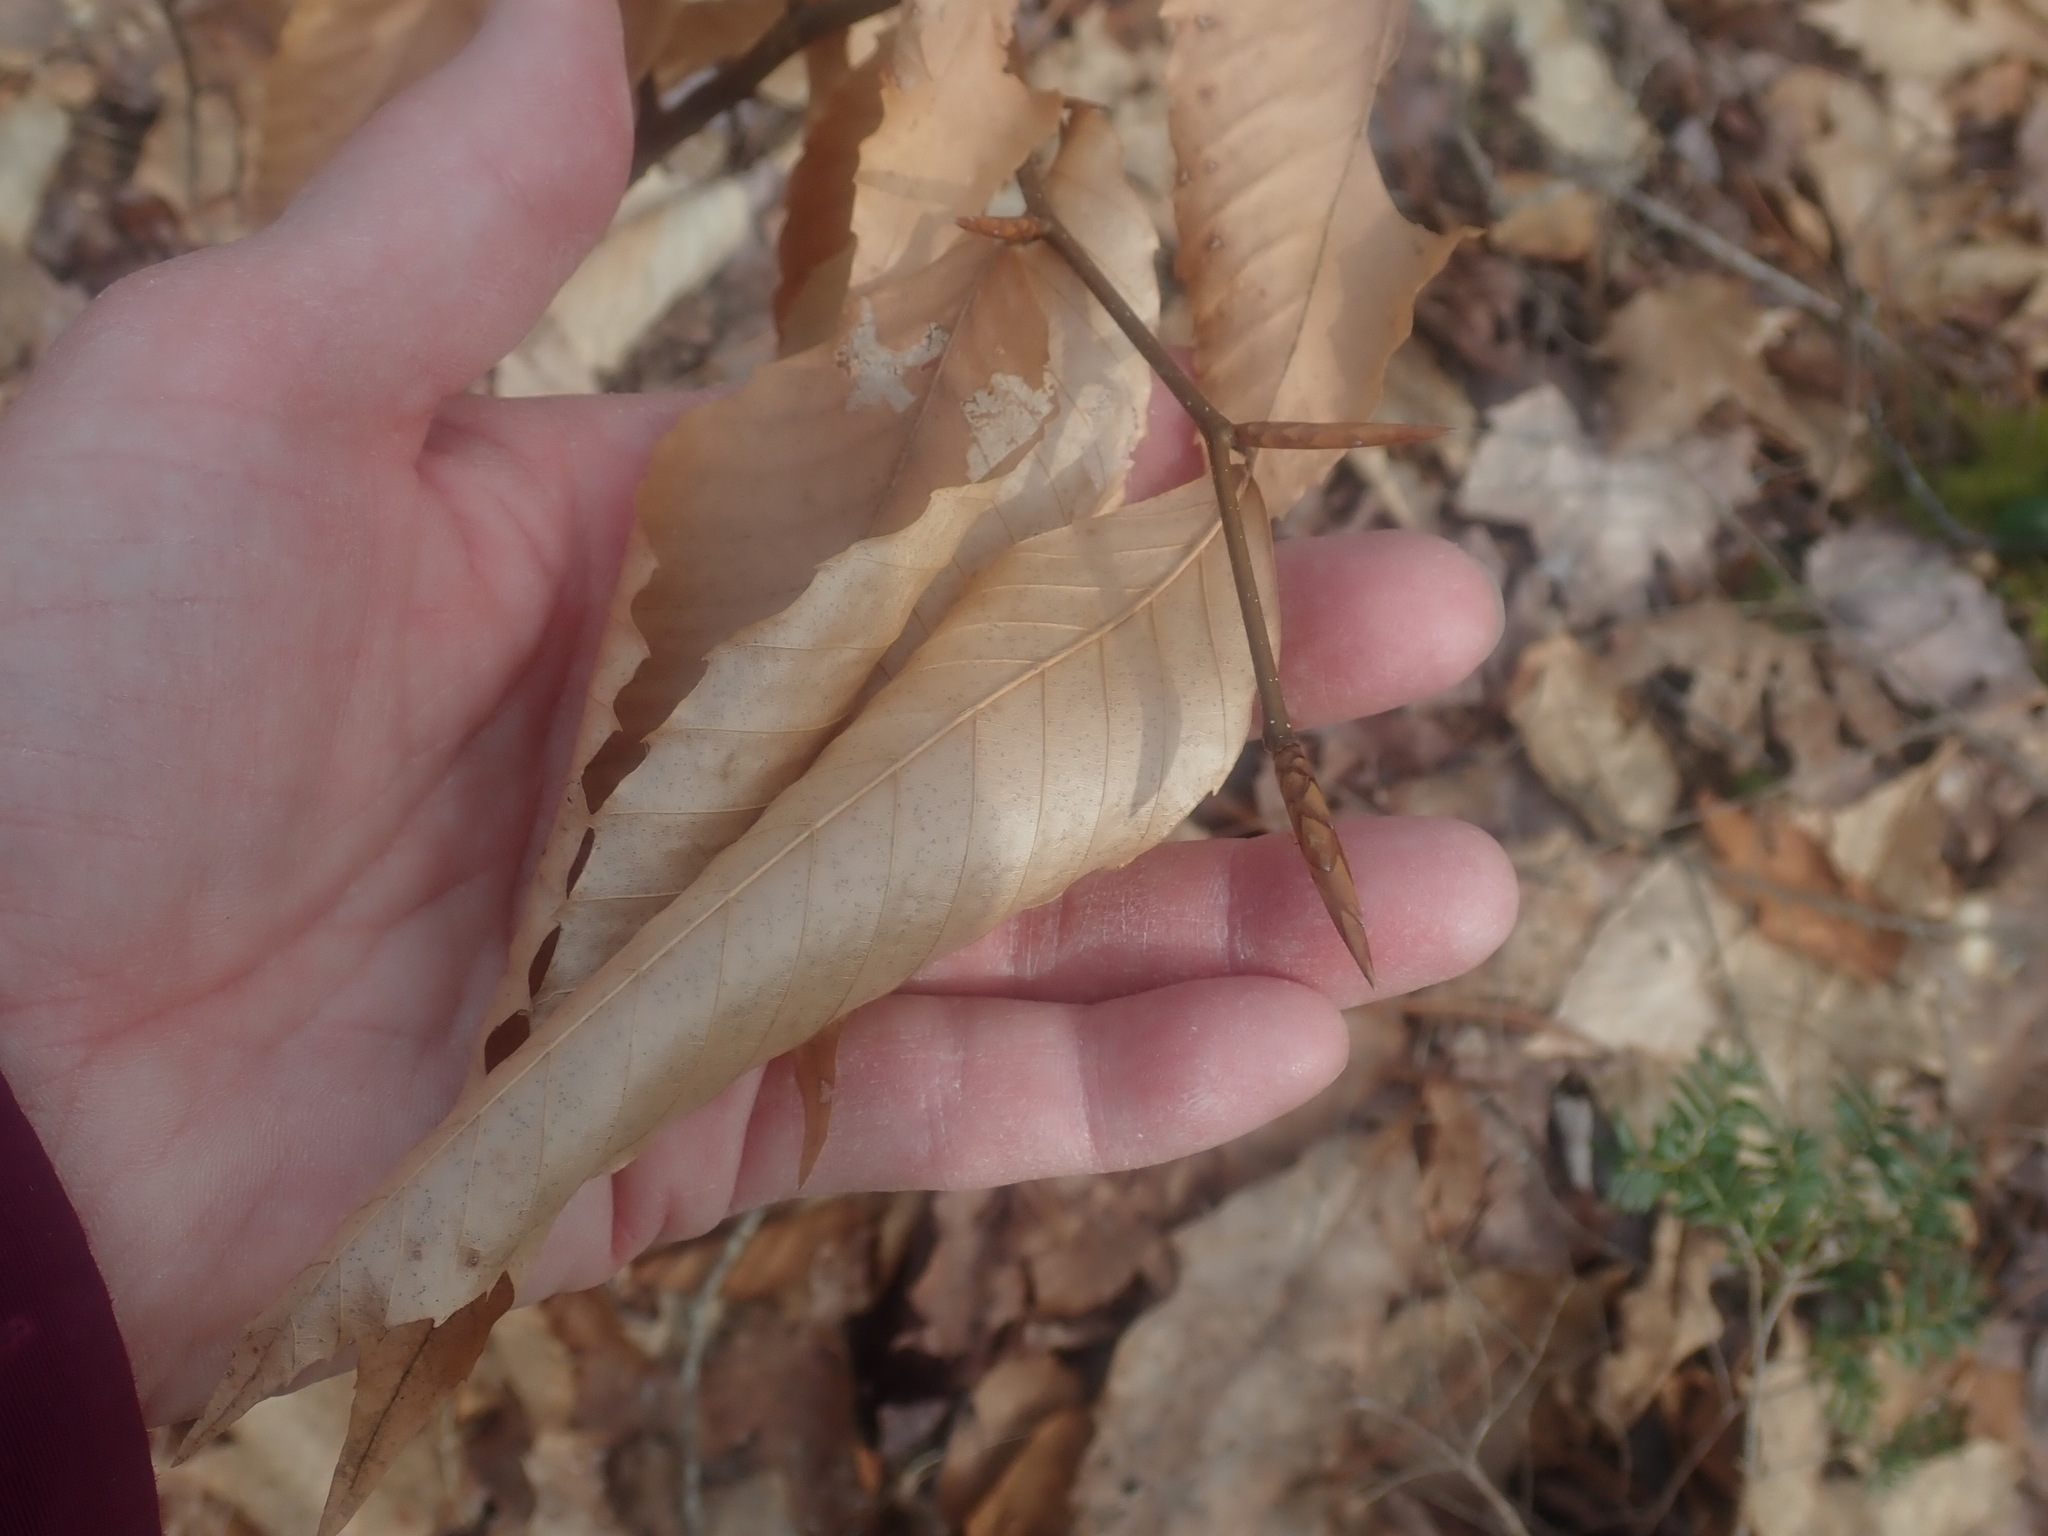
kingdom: Plantae
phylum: Tracheophyta
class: Magnoliopsida
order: Fagales
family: Fagaceae
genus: Fagus
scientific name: Fagus grandifolia
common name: American beech
